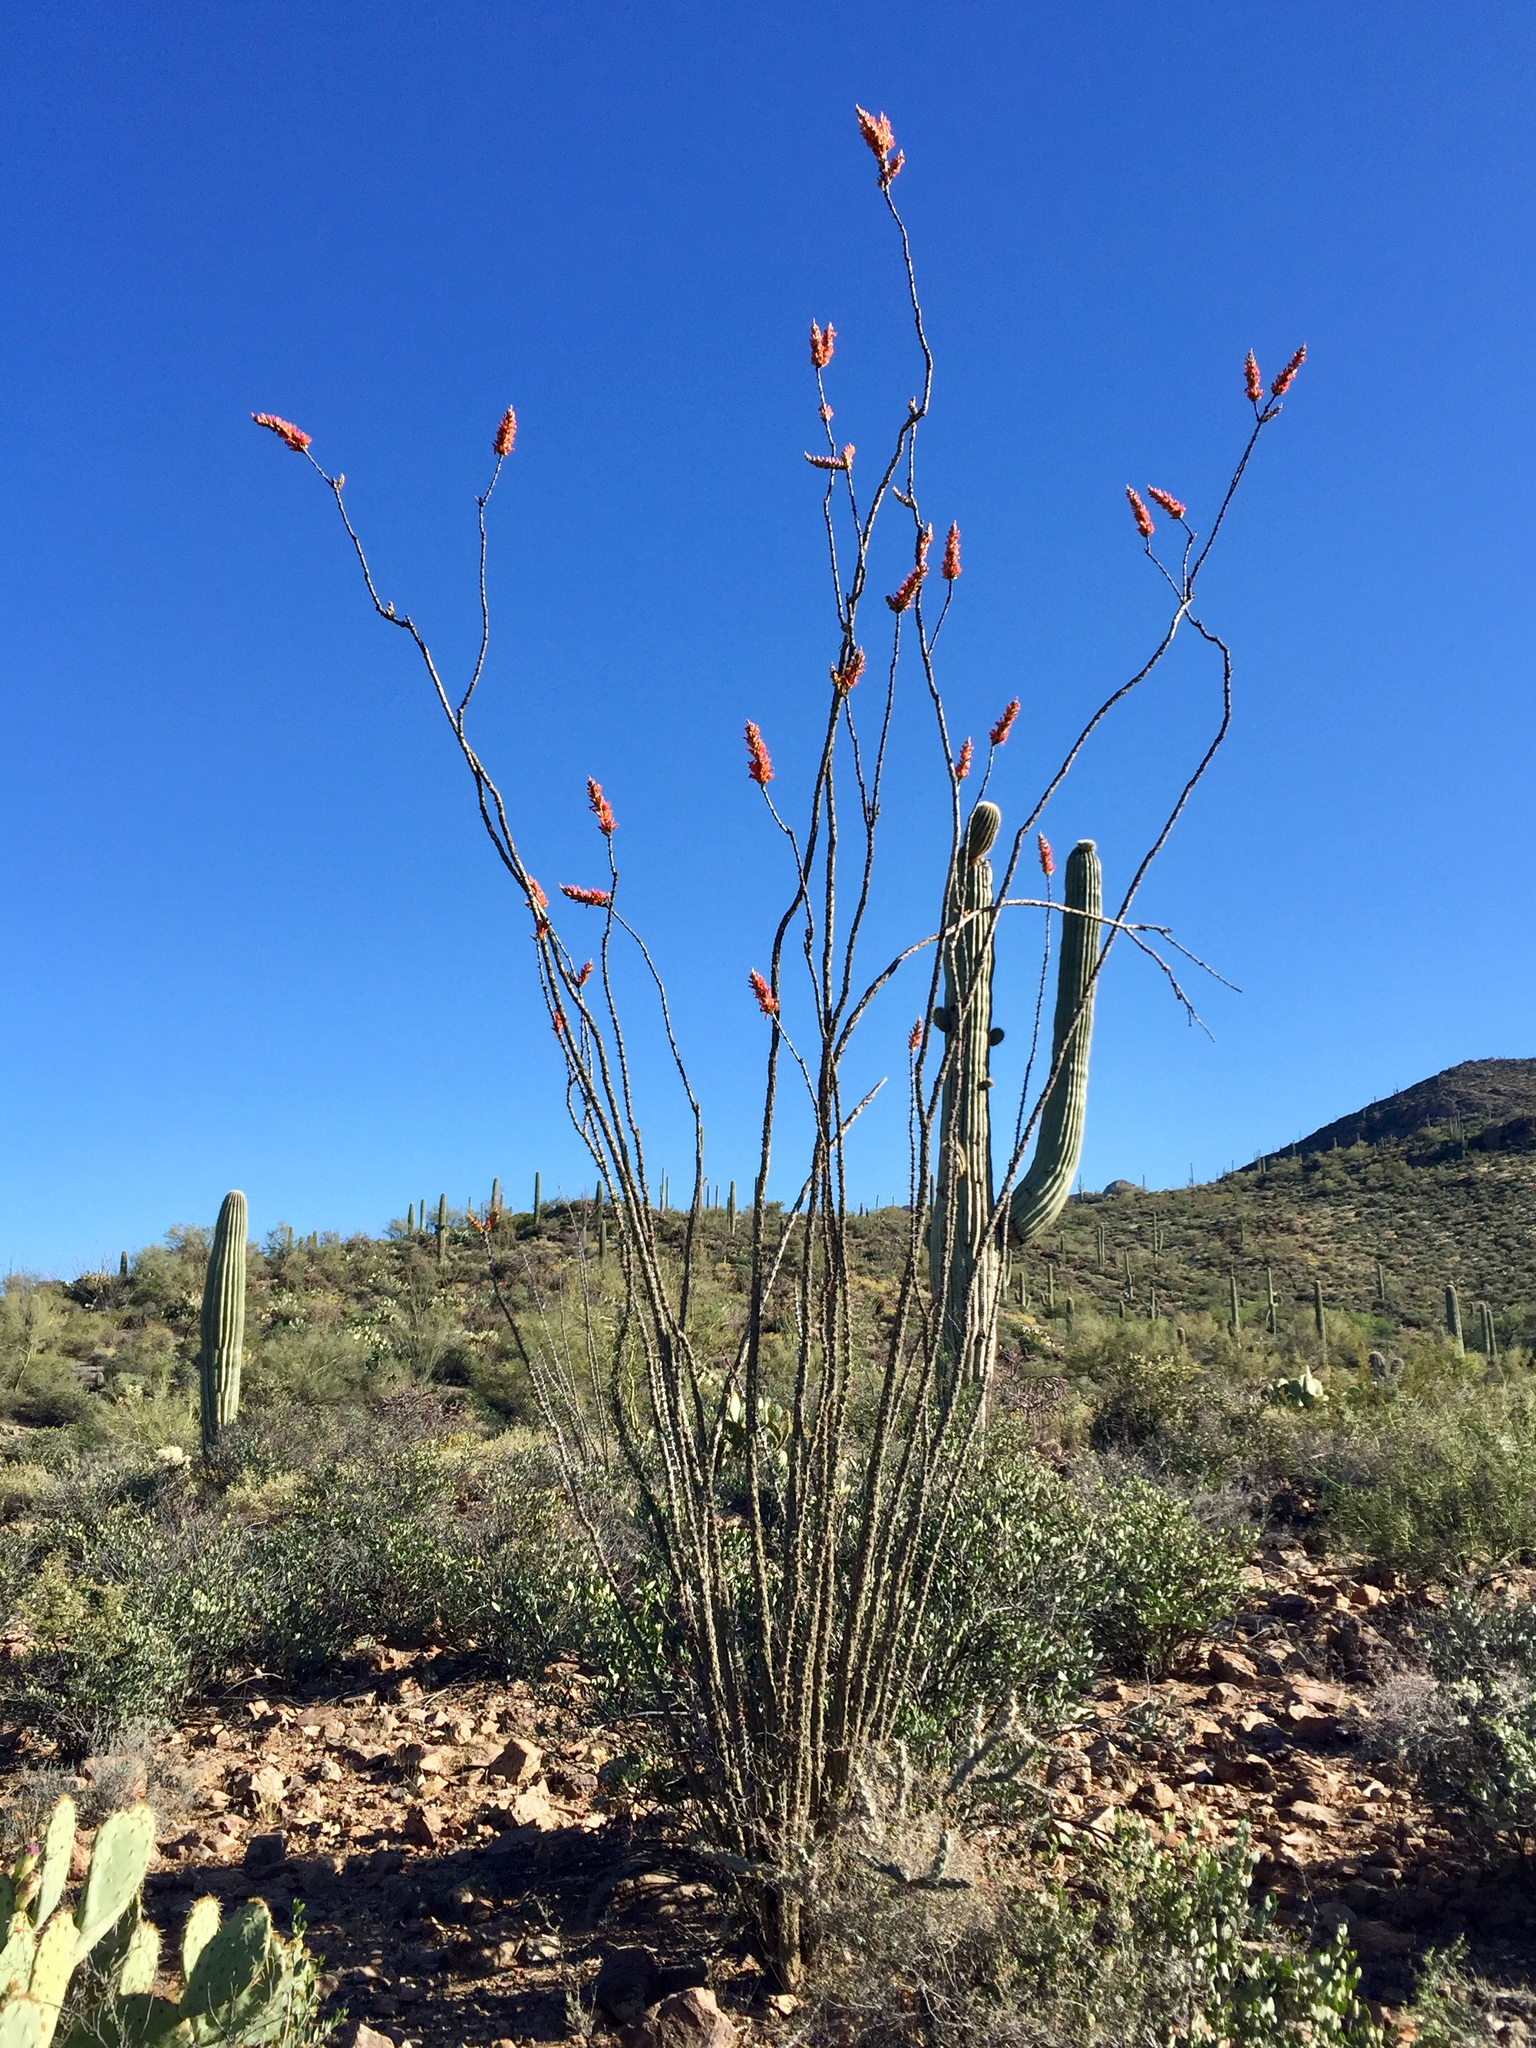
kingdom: Plantae
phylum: Tracheophyta
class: Magnoliopsida
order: Ericales
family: Fouquieriaceae
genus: Fouquieria
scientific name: Fouquieria splendens
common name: Vine-cactus
